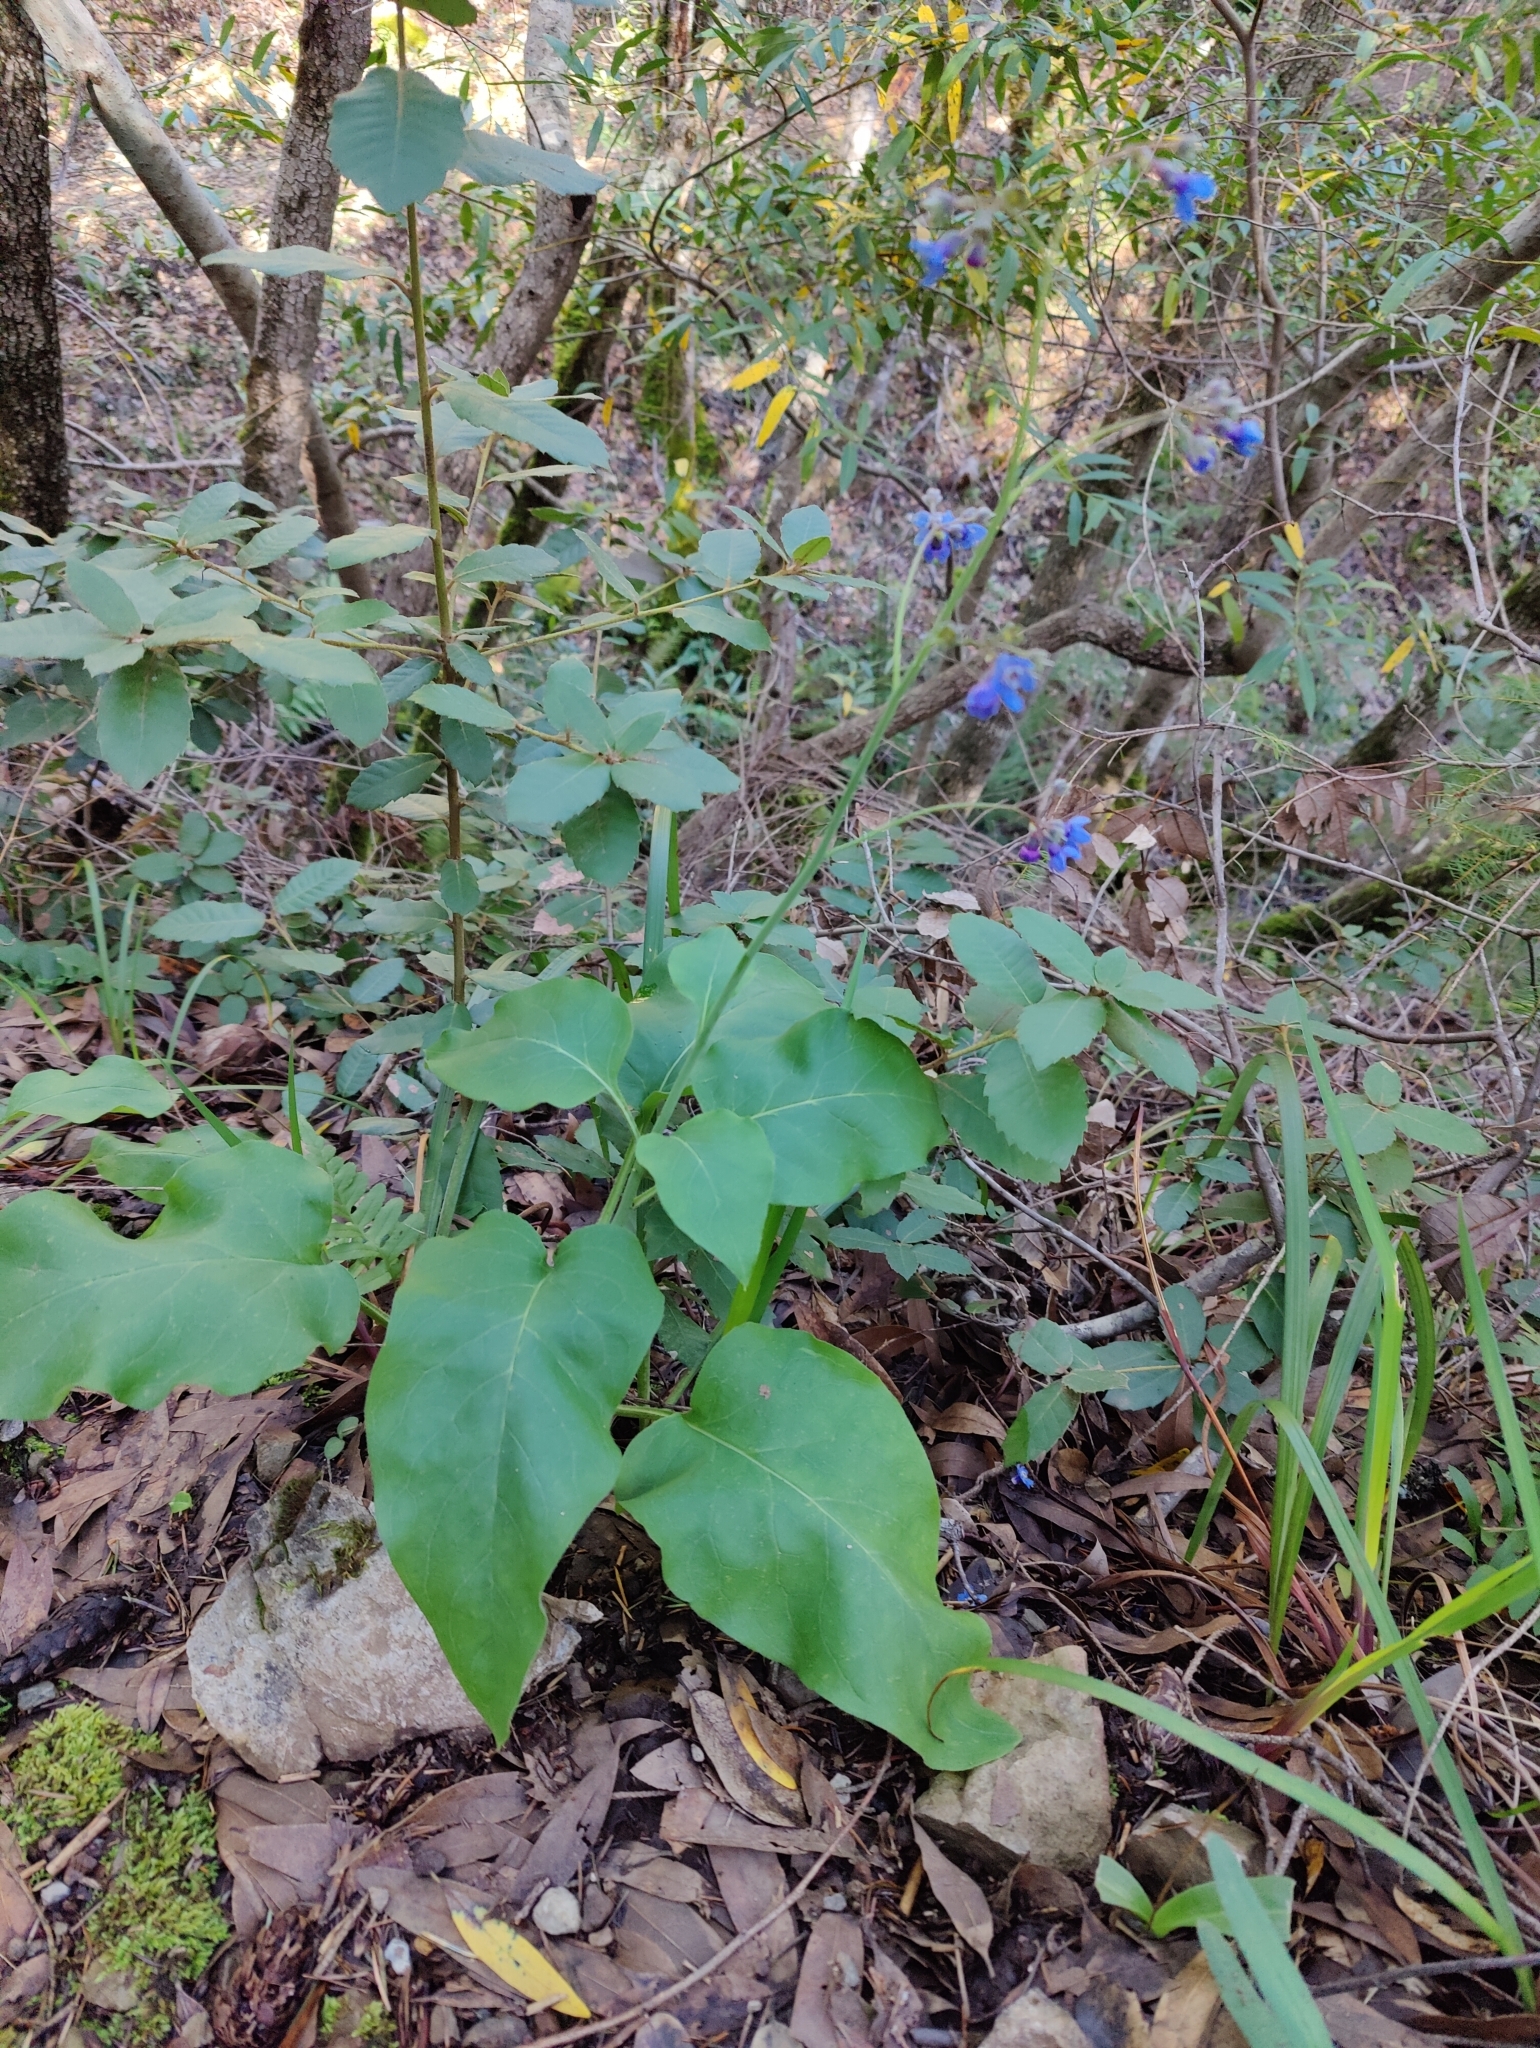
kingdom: Plantae
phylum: Tracheophyta
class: Magnoliopsida
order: Boraginales
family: Boraginaceae
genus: Adelinia
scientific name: Adelinia grande
